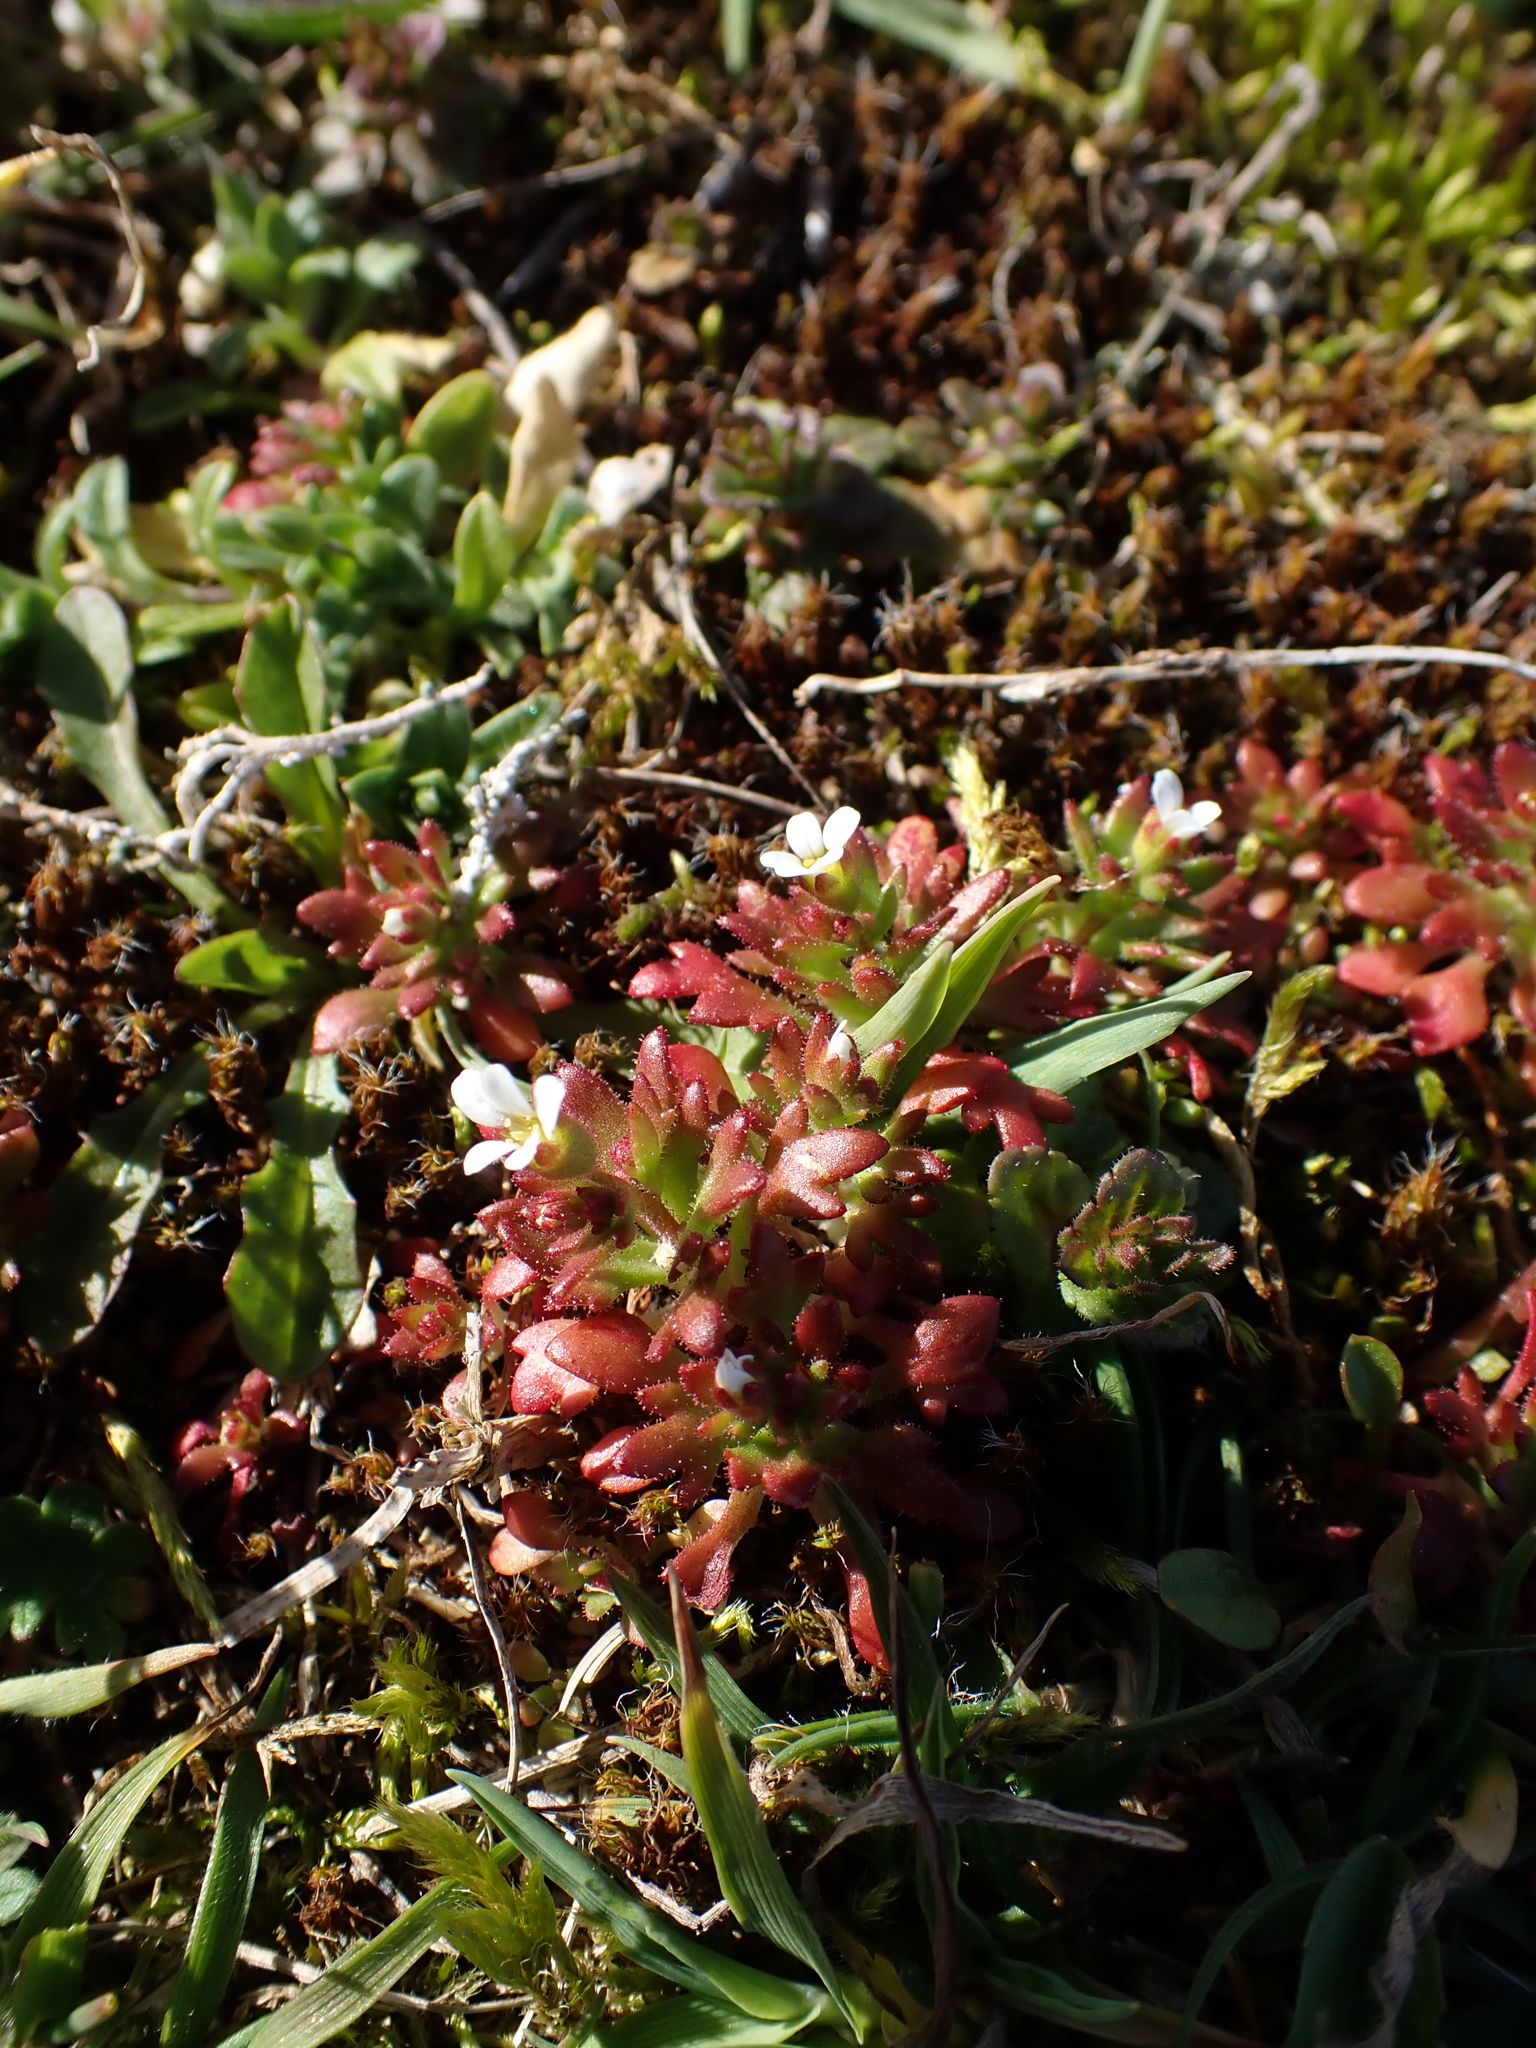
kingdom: Plantae
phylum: Tracheophyta
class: Magnoliopsida
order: Saxifragales
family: Saxifragaceae
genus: Saxifraga
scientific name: Saxifraga tridactylites
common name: Rue-leaved saxifrage
